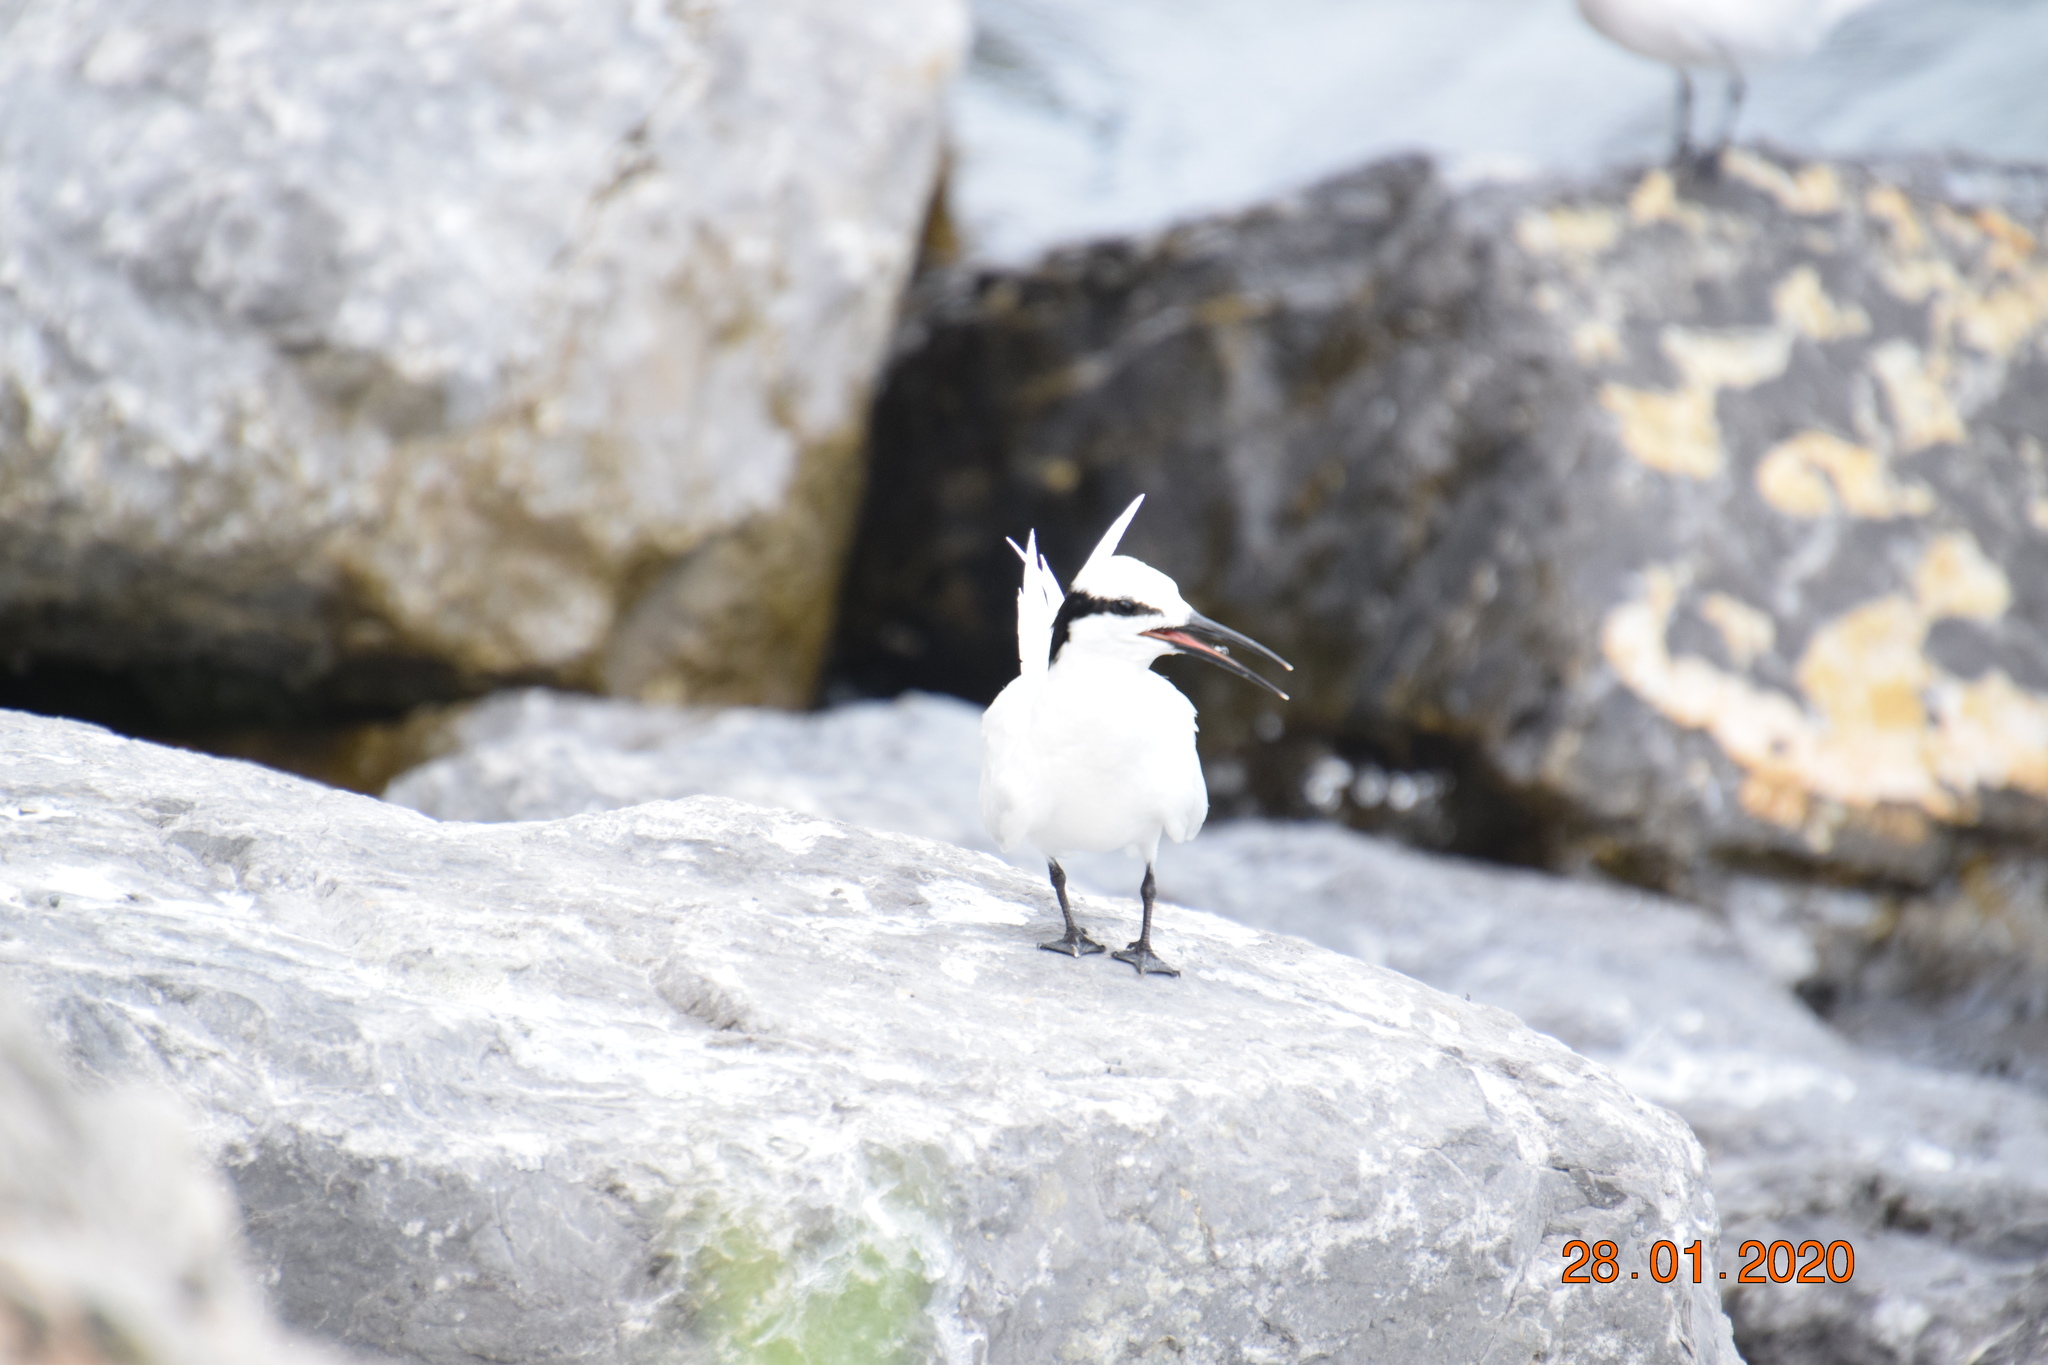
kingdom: Animalia
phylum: Chordata
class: Aves
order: Charadriiformes
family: Laridae
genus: Sterna
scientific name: Sterna sumatrana
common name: Black-naped tern
